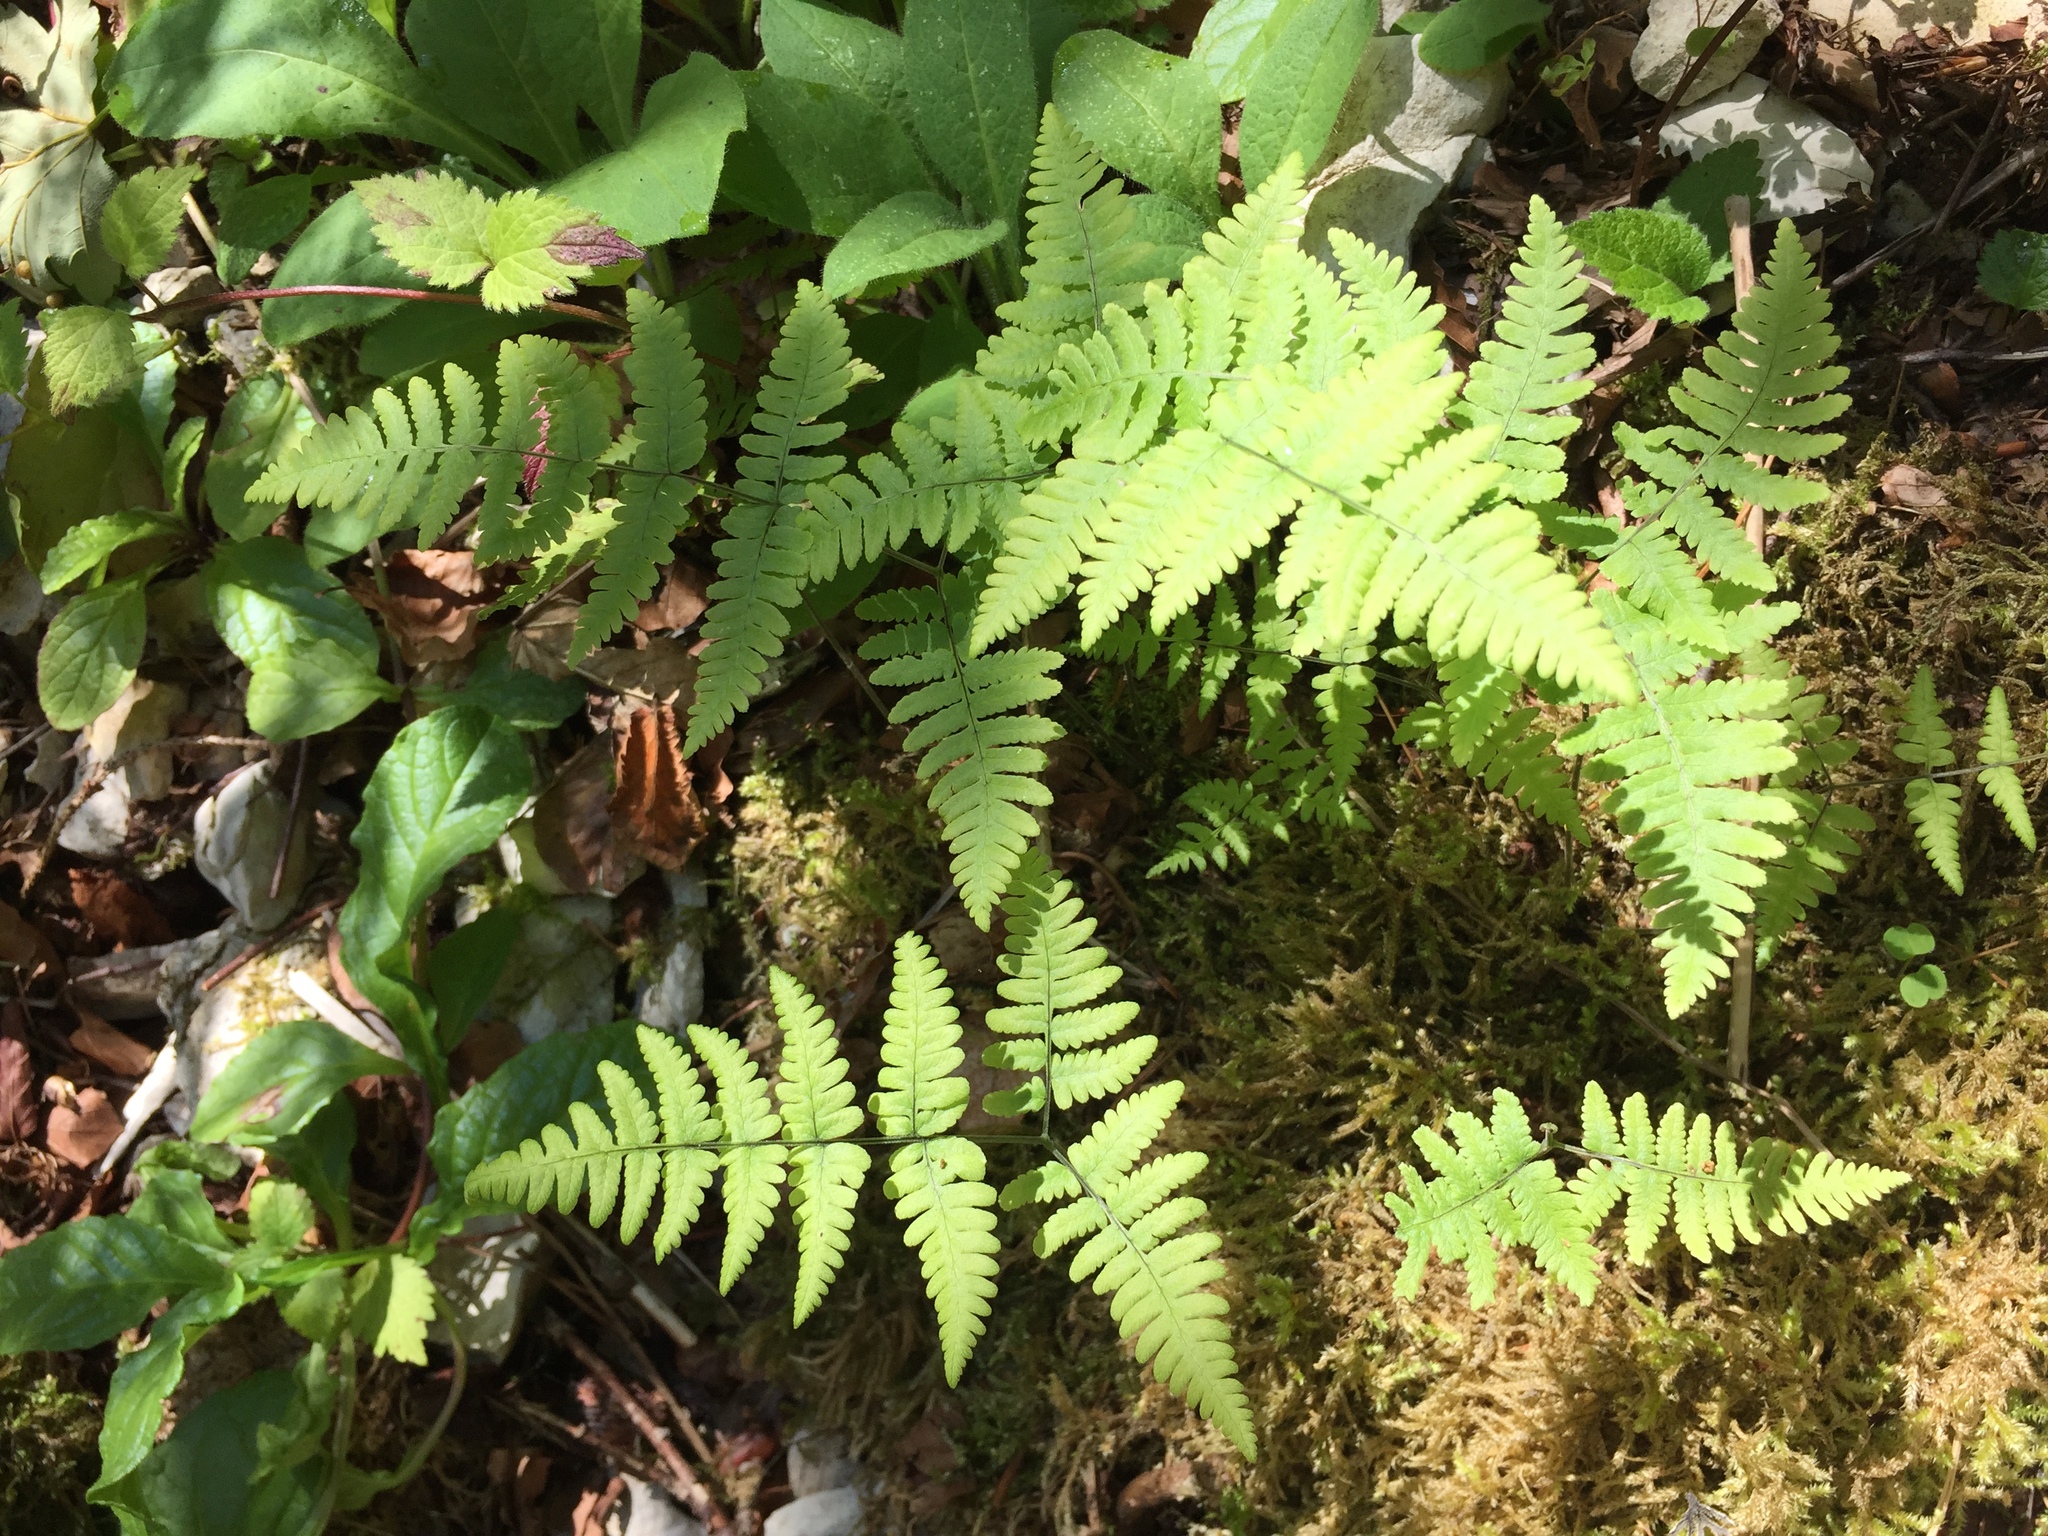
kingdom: Plantae
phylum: Tracheophyta
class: Polypodiopsida
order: Polypodiales
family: Cystopteridaceae
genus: Gymnocarpium
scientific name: Gymnocarpium robertianum
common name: Limestone fern
